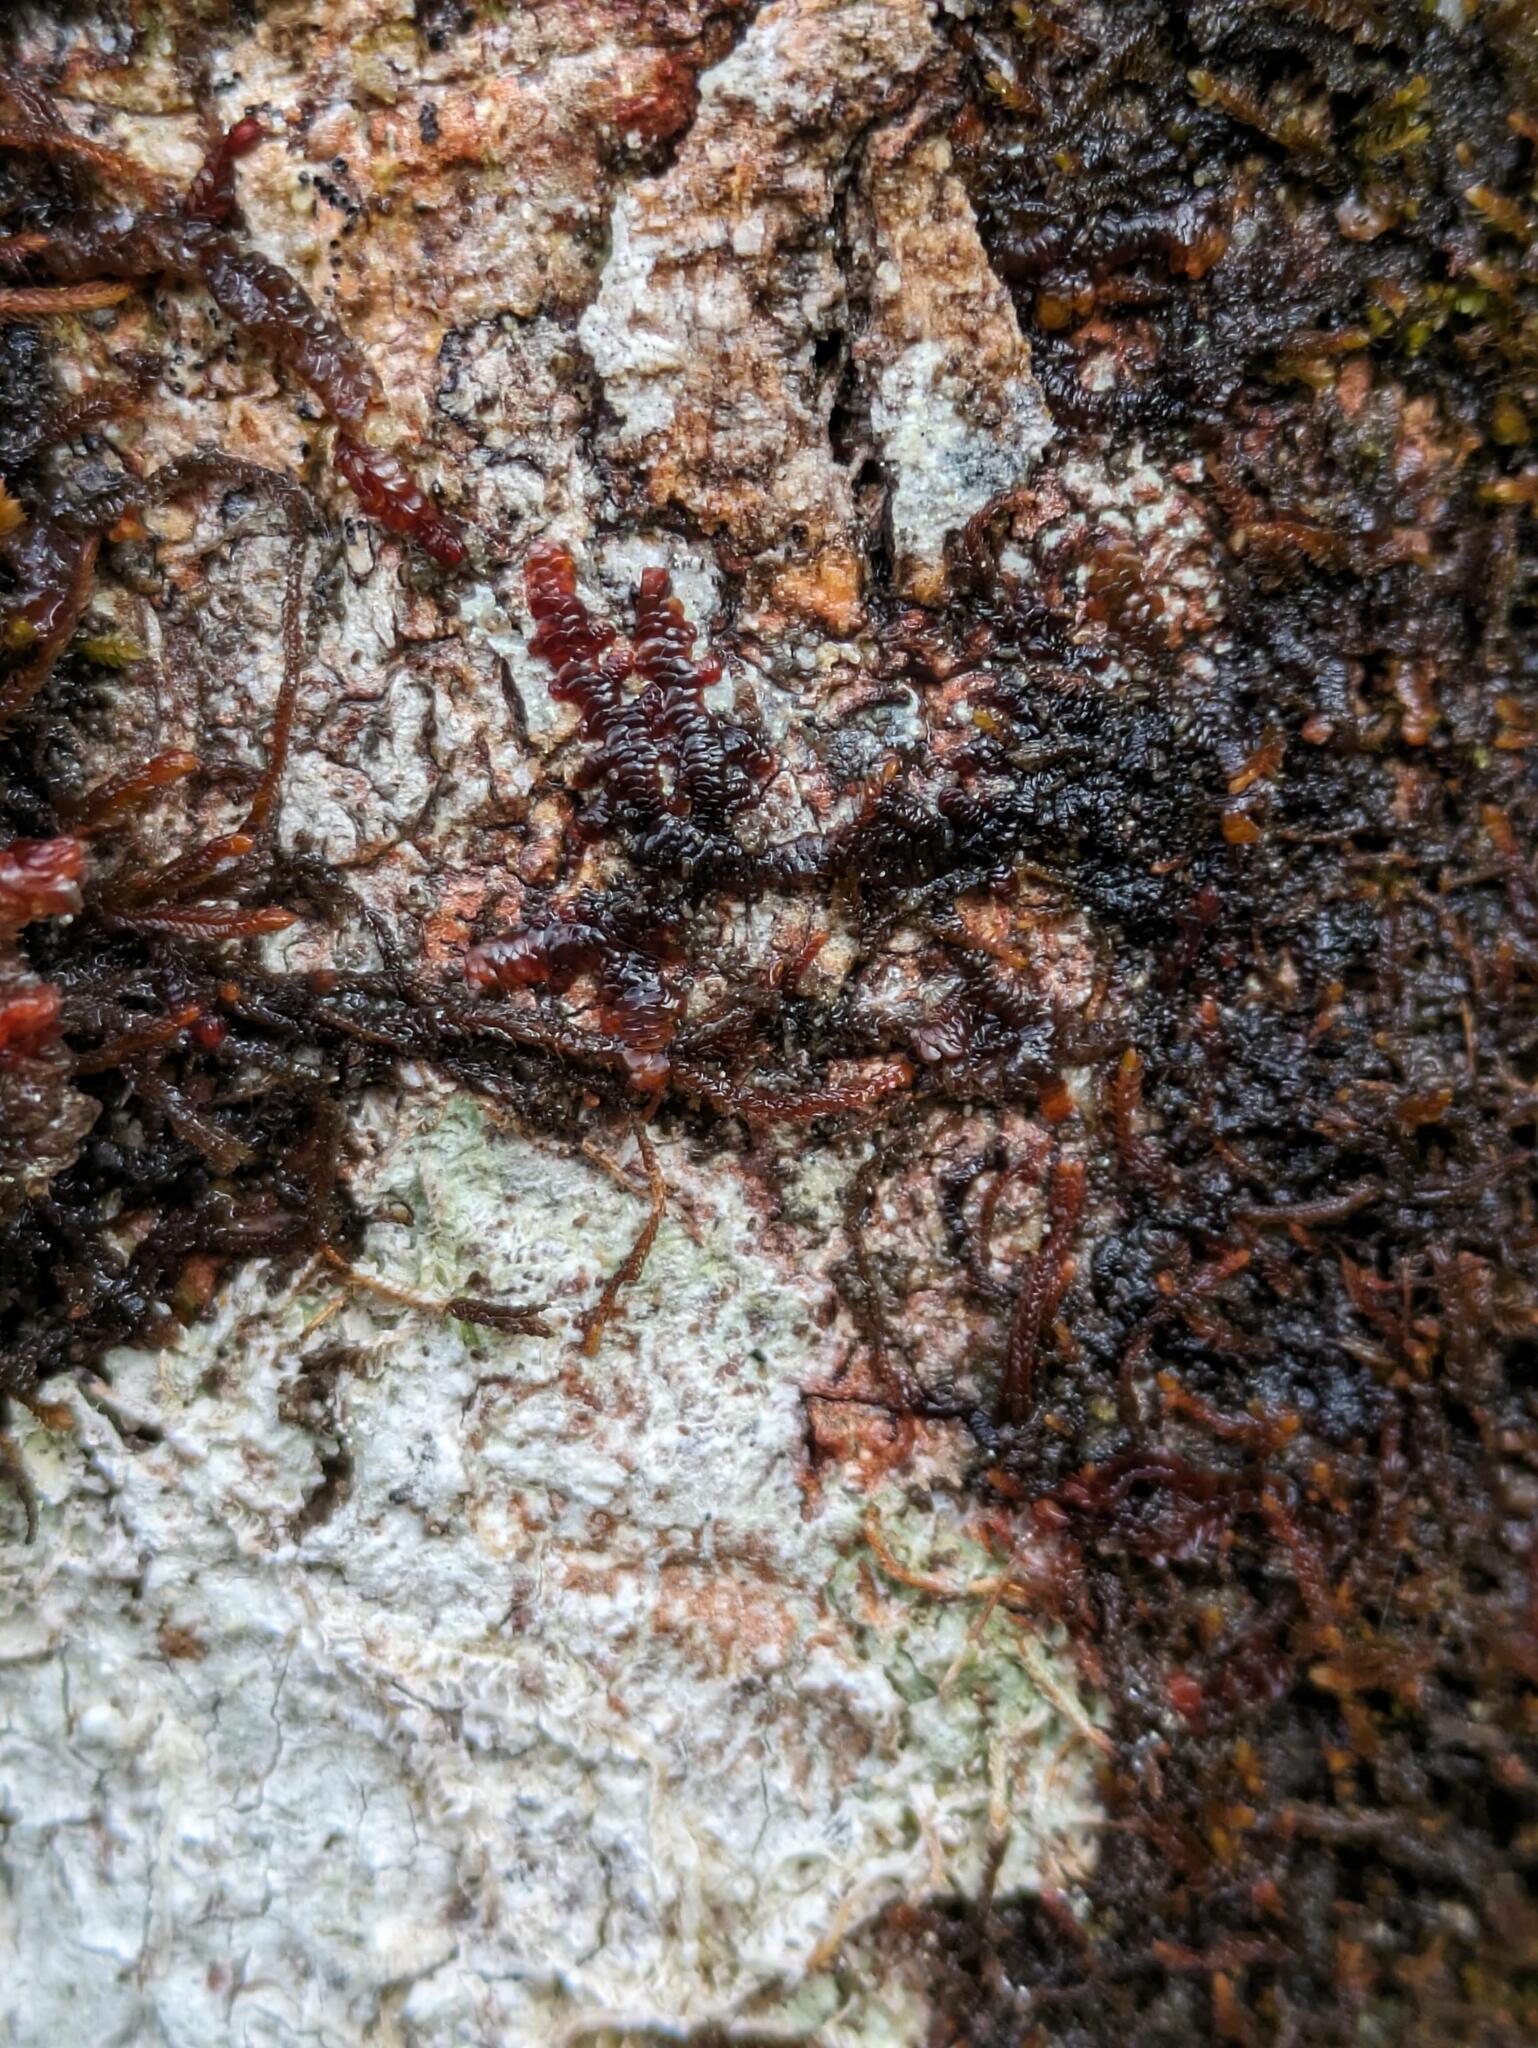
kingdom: Plantae
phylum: Marchantiophyta
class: Jungermanniopsida
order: Porellales
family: Frullaniaceae
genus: Frullania
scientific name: Frullania hypoleuca
